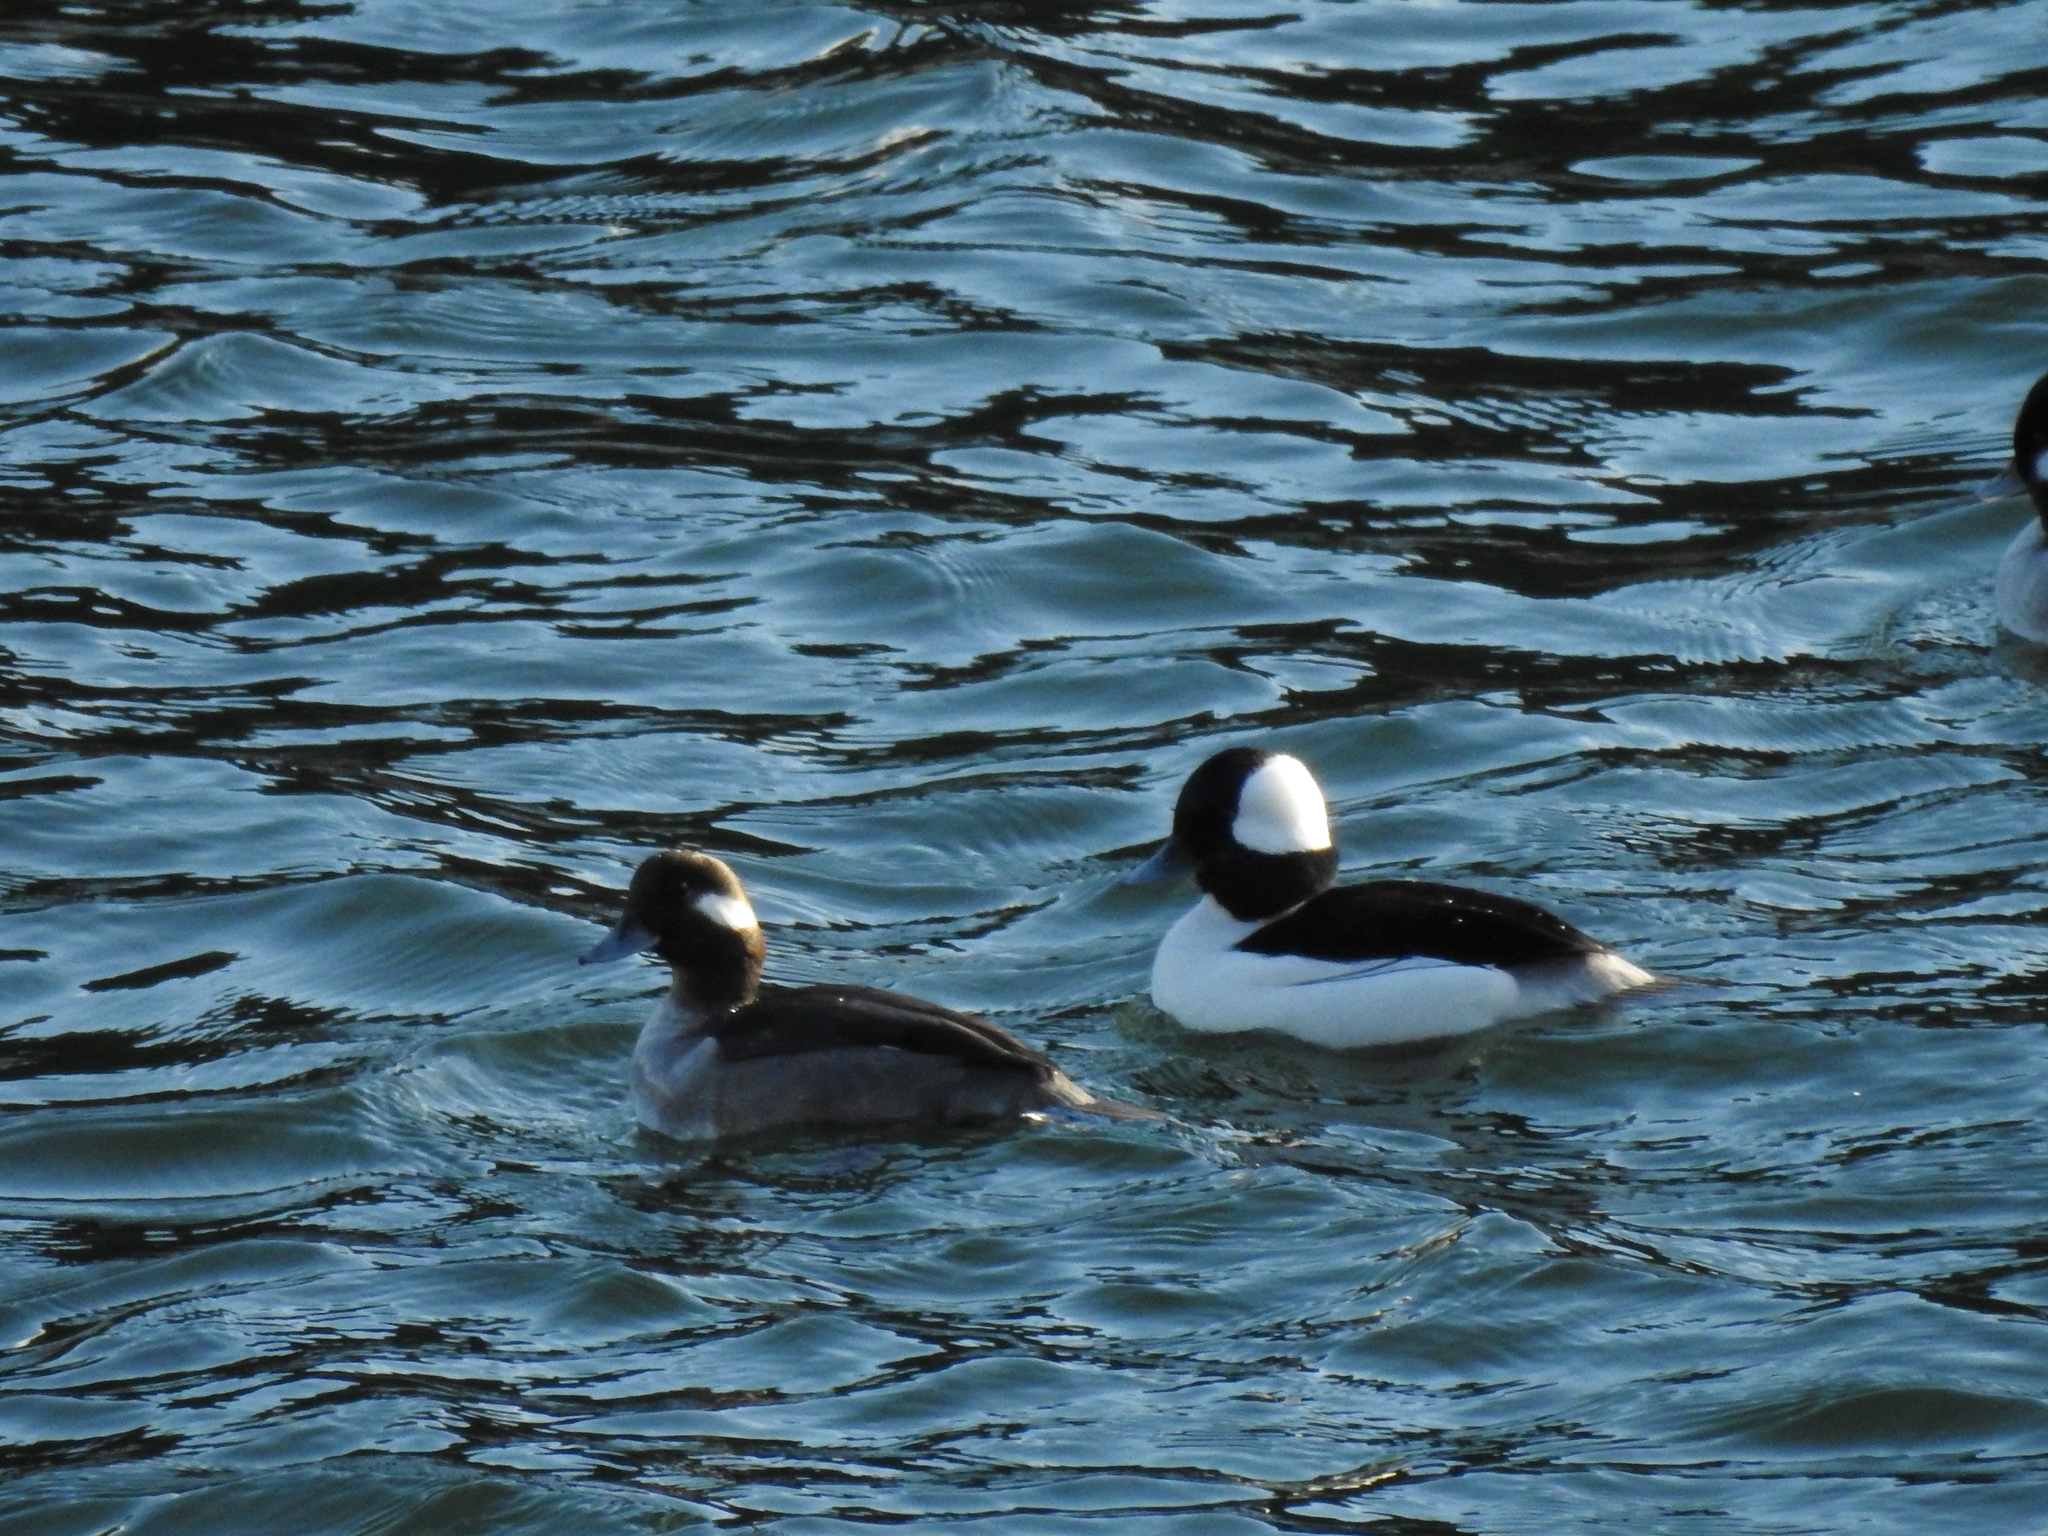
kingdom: Animalia
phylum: Chordata
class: Aves
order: Anseriformes
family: Anatidae
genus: Bucephala
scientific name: Bucephala albeola
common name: Bufflehead
